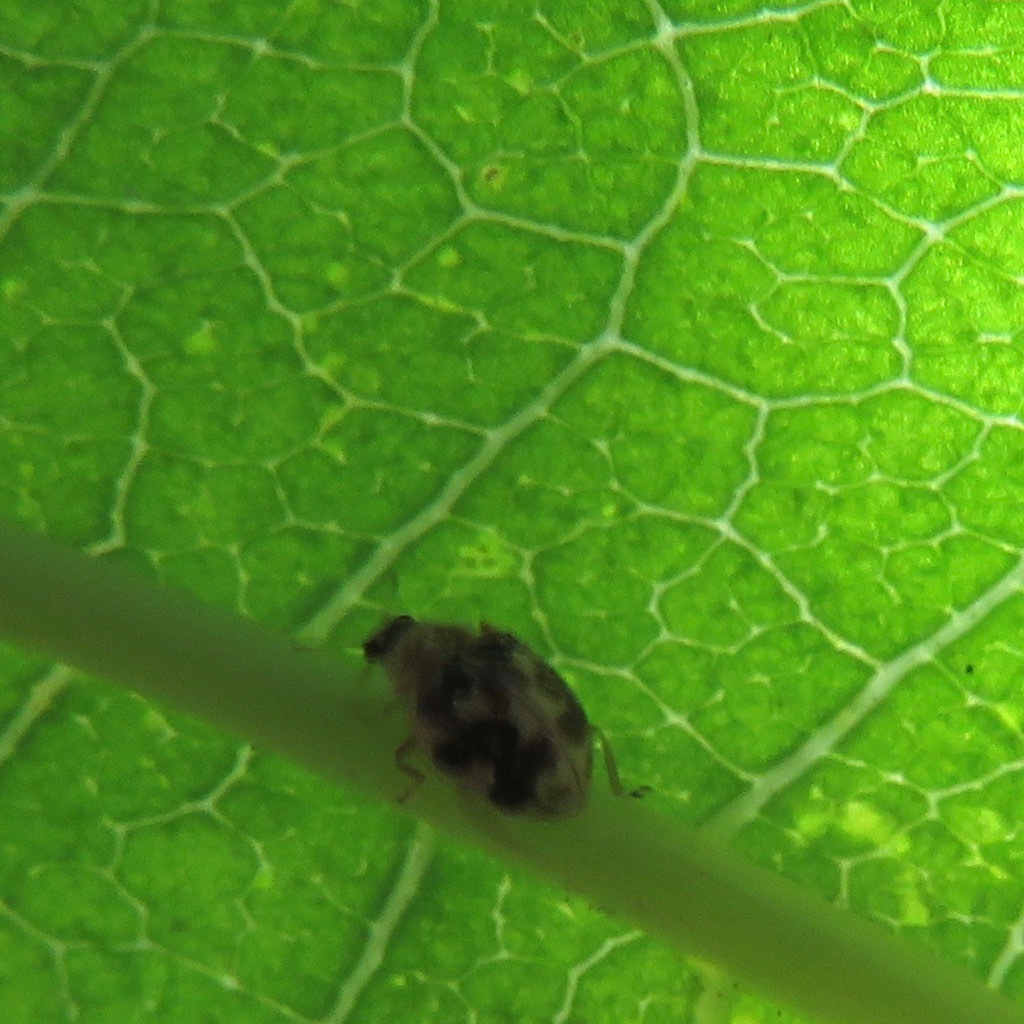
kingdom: Animalia
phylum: Arthropoda
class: Insecta
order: Coleoptera
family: Coccinellidae
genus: Psyllobora
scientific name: Psyllobora vigintimaculata
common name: Ladybird beetle
